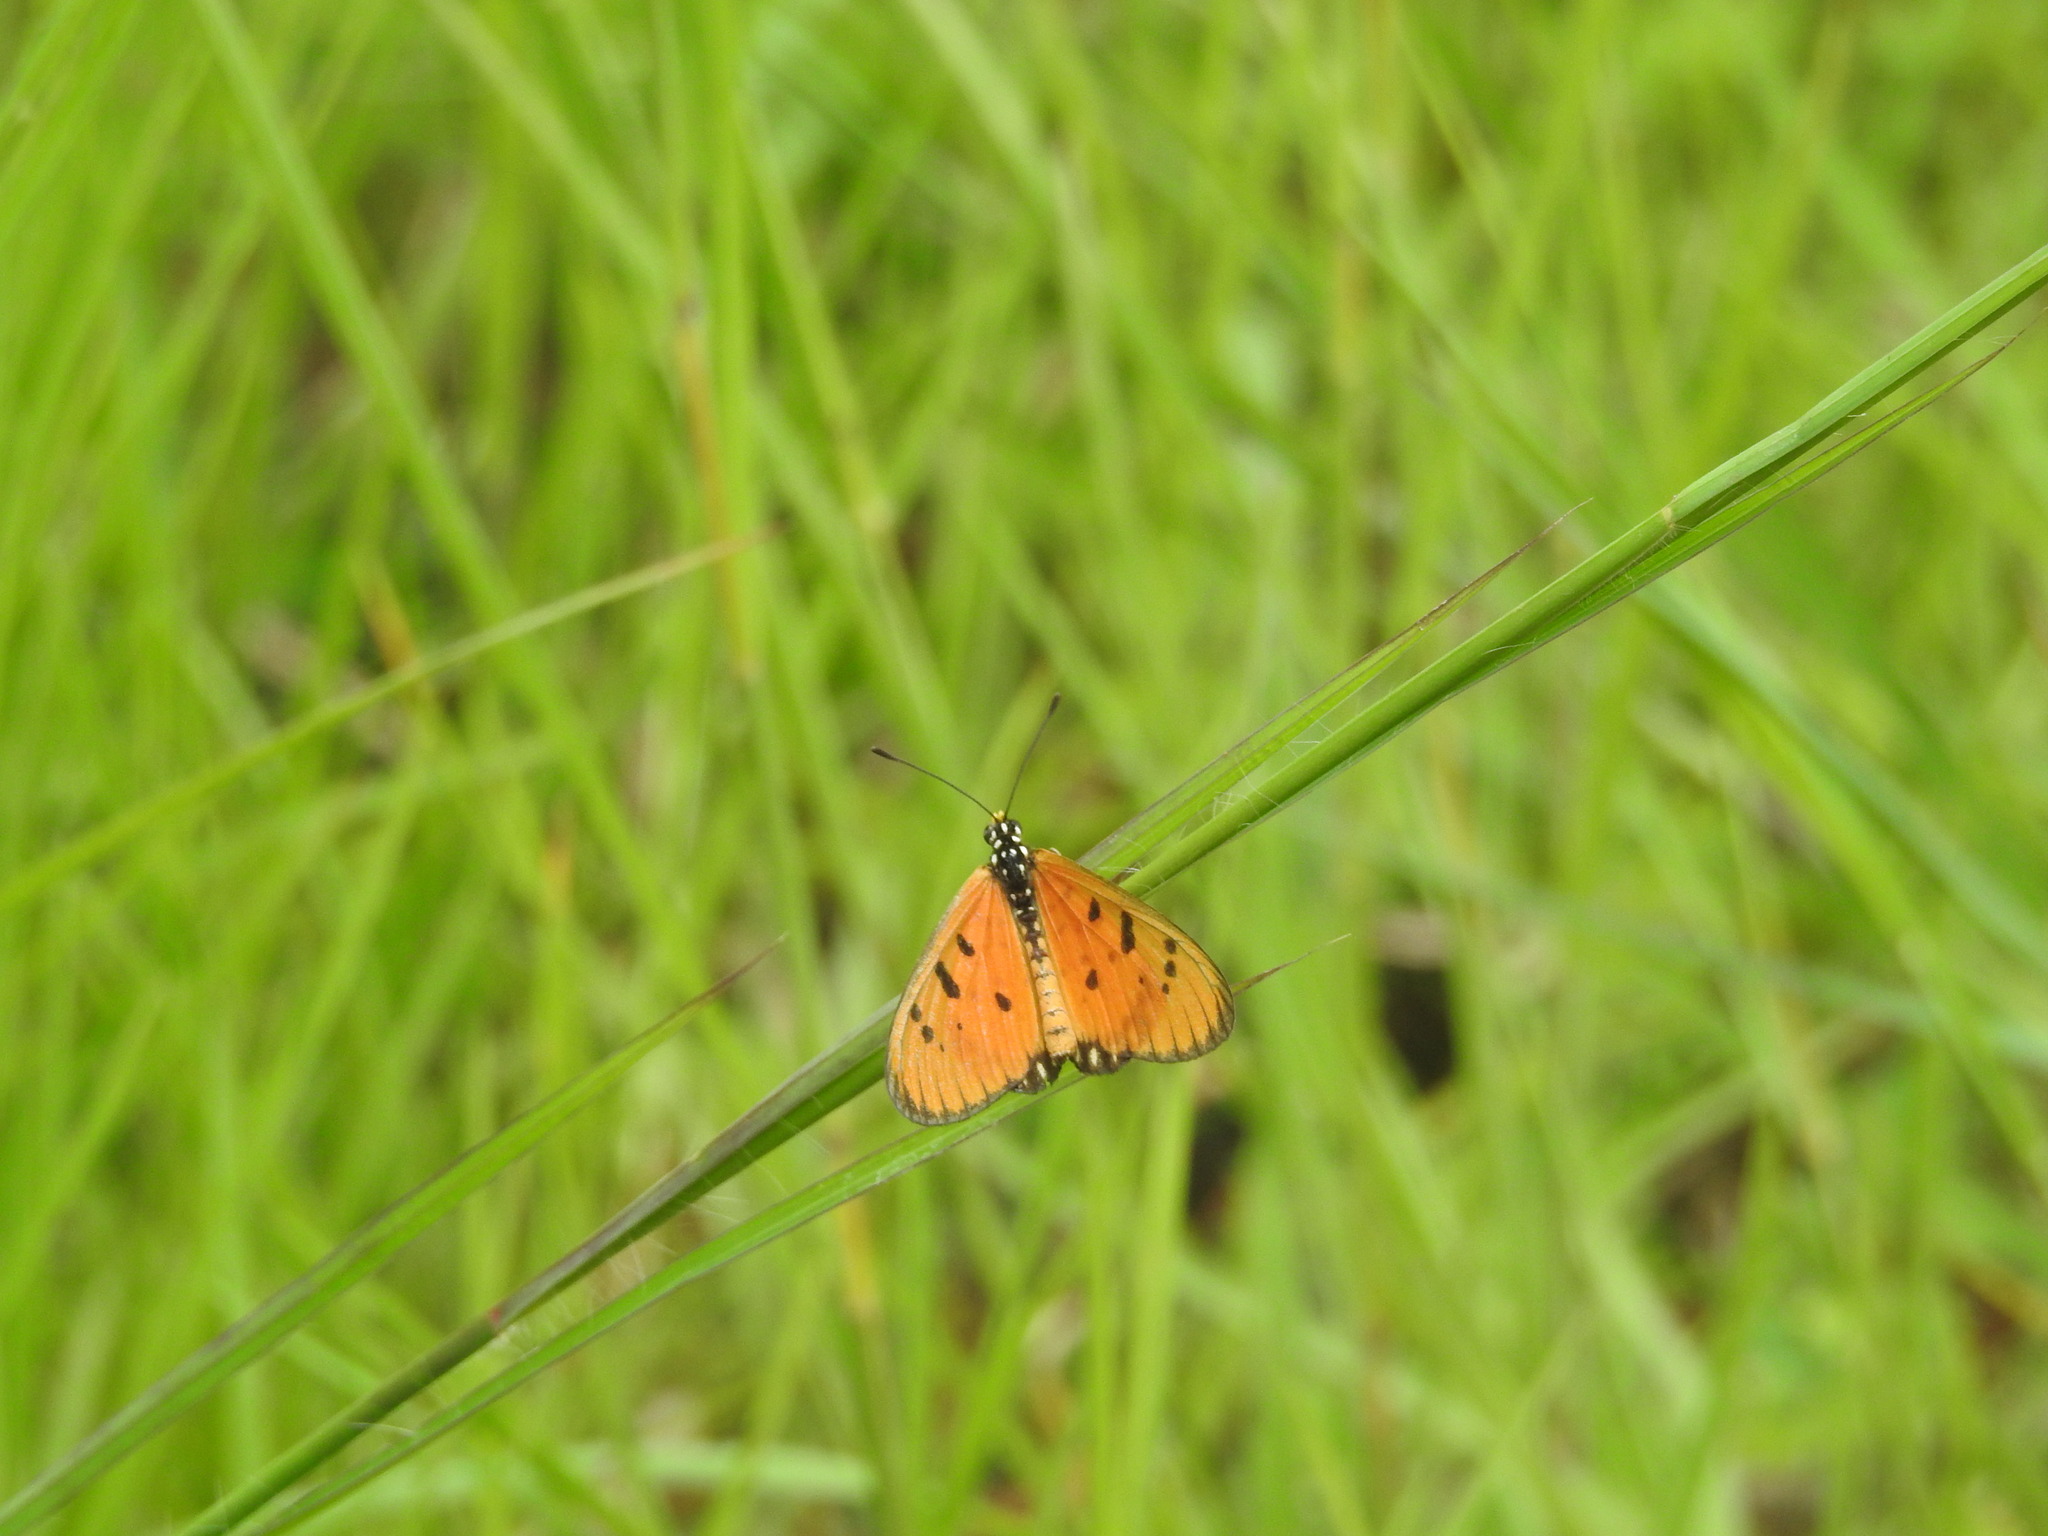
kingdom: Animalia
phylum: Arthropoda
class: Insecta
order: Lepidoptera
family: Nymphalidae
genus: Acraea
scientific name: Acraea terpsicore
